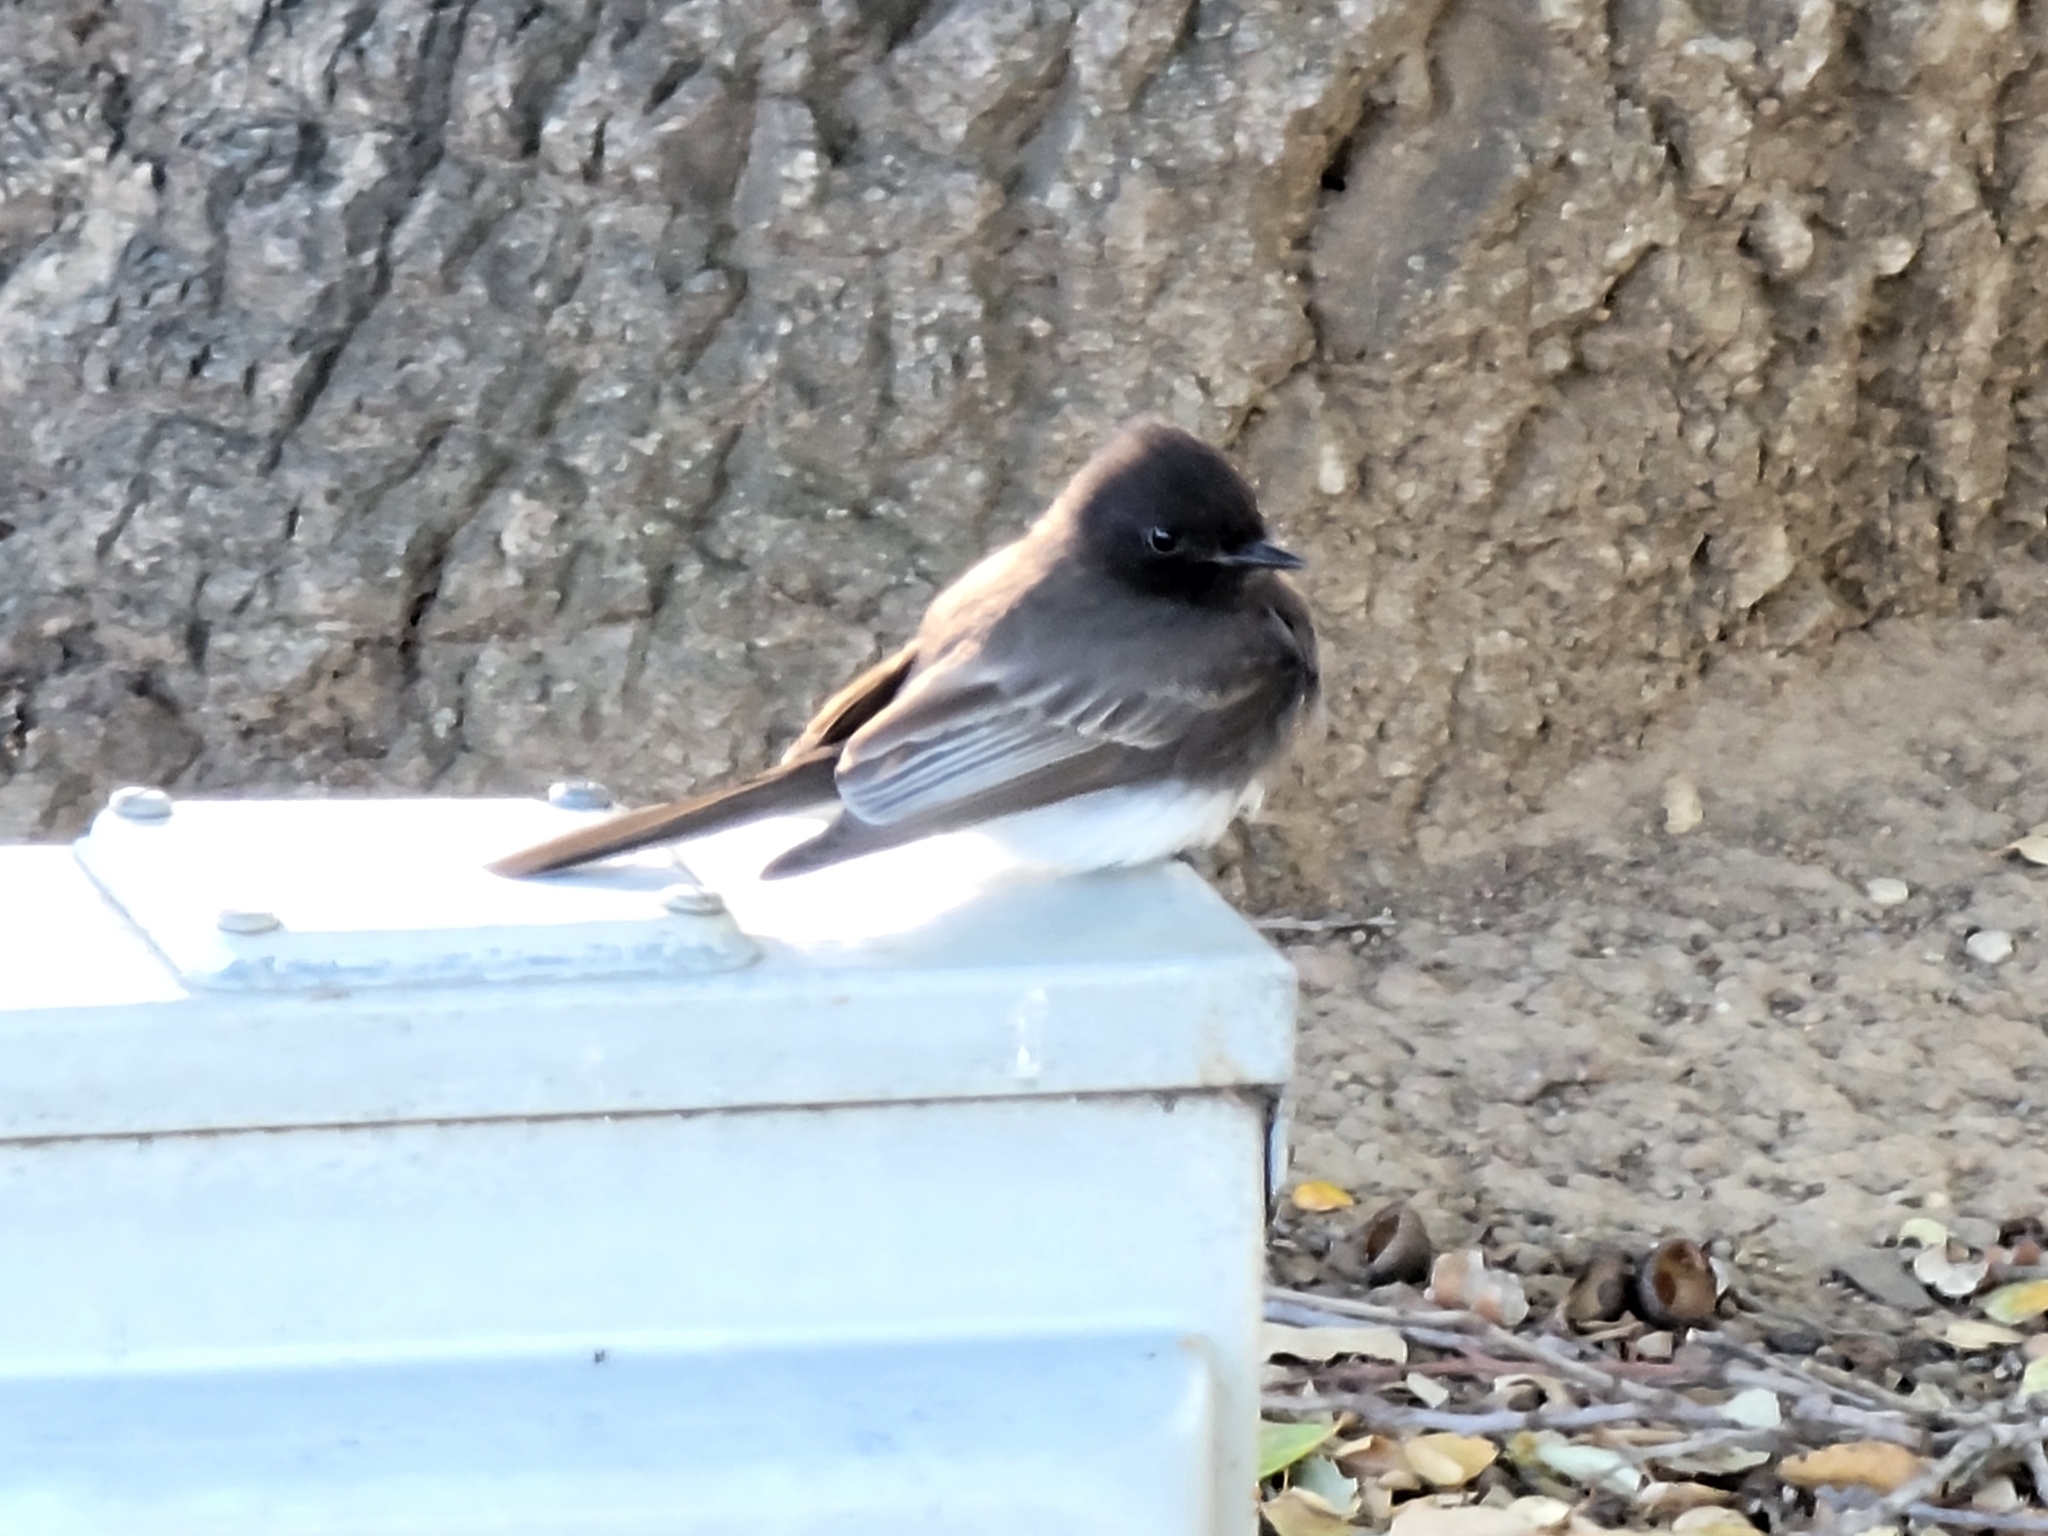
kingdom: Animalia
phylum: Chordata
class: Aves
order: Passeriformes
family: Tyrannidae
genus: Sayornis
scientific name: Sayornis nigricans
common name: Black phoebe
